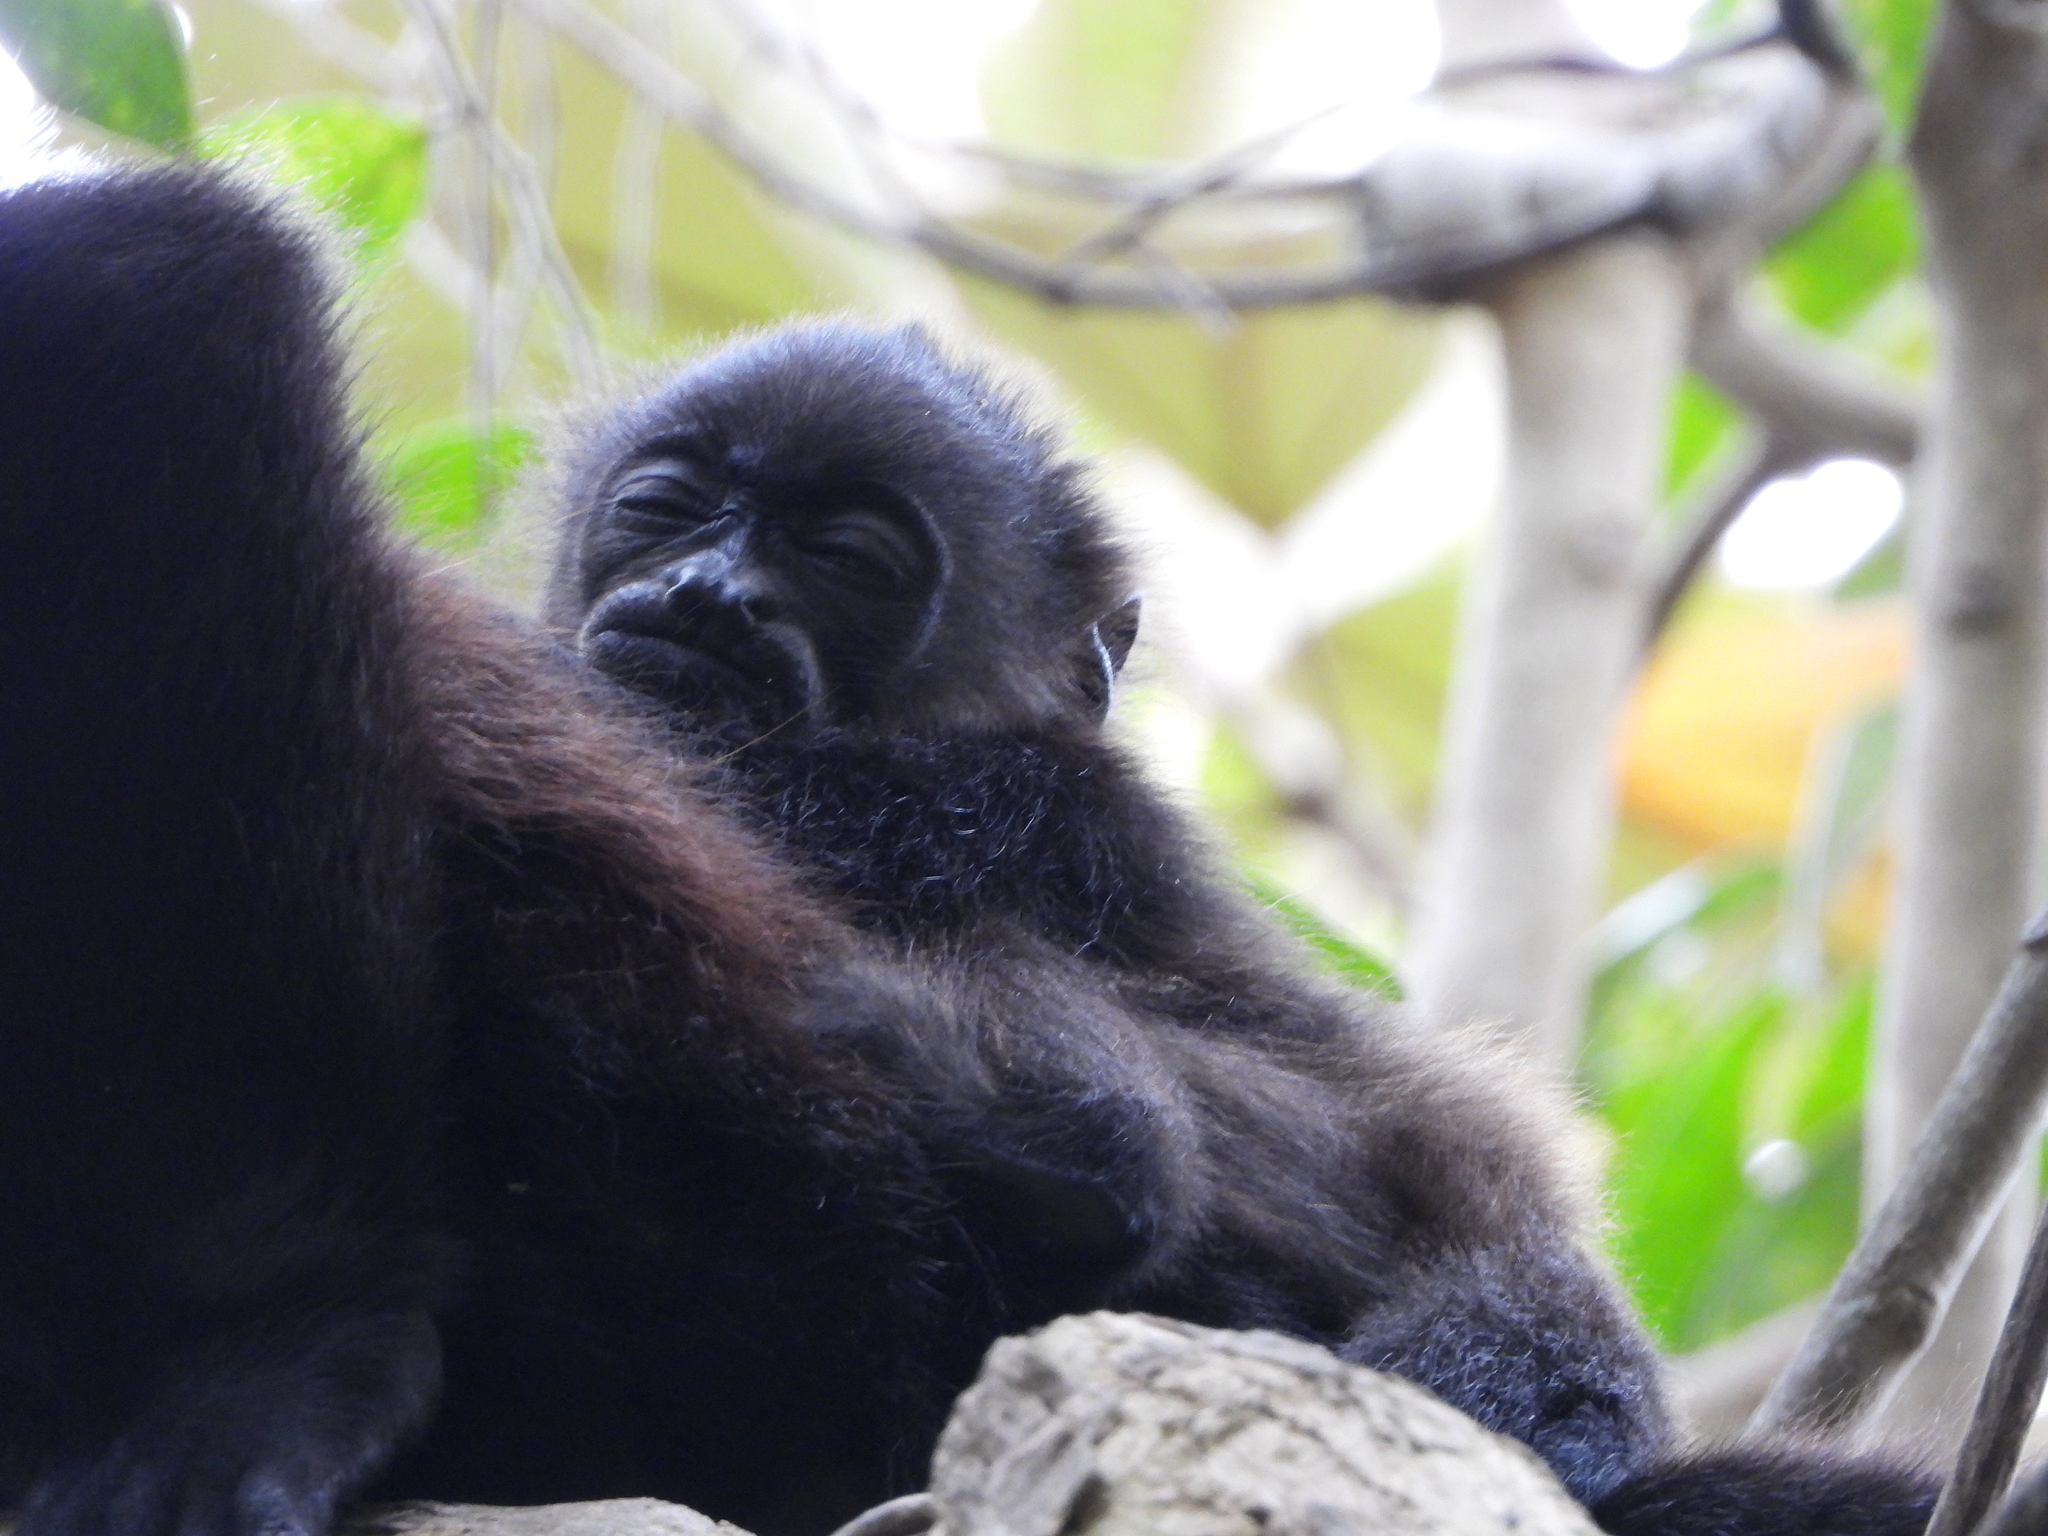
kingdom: Animalia
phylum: Chordata
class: Mammalia
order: Primates
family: Atelidae
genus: Alouatta
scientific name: Alouatta palliata
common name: Mantled howler
